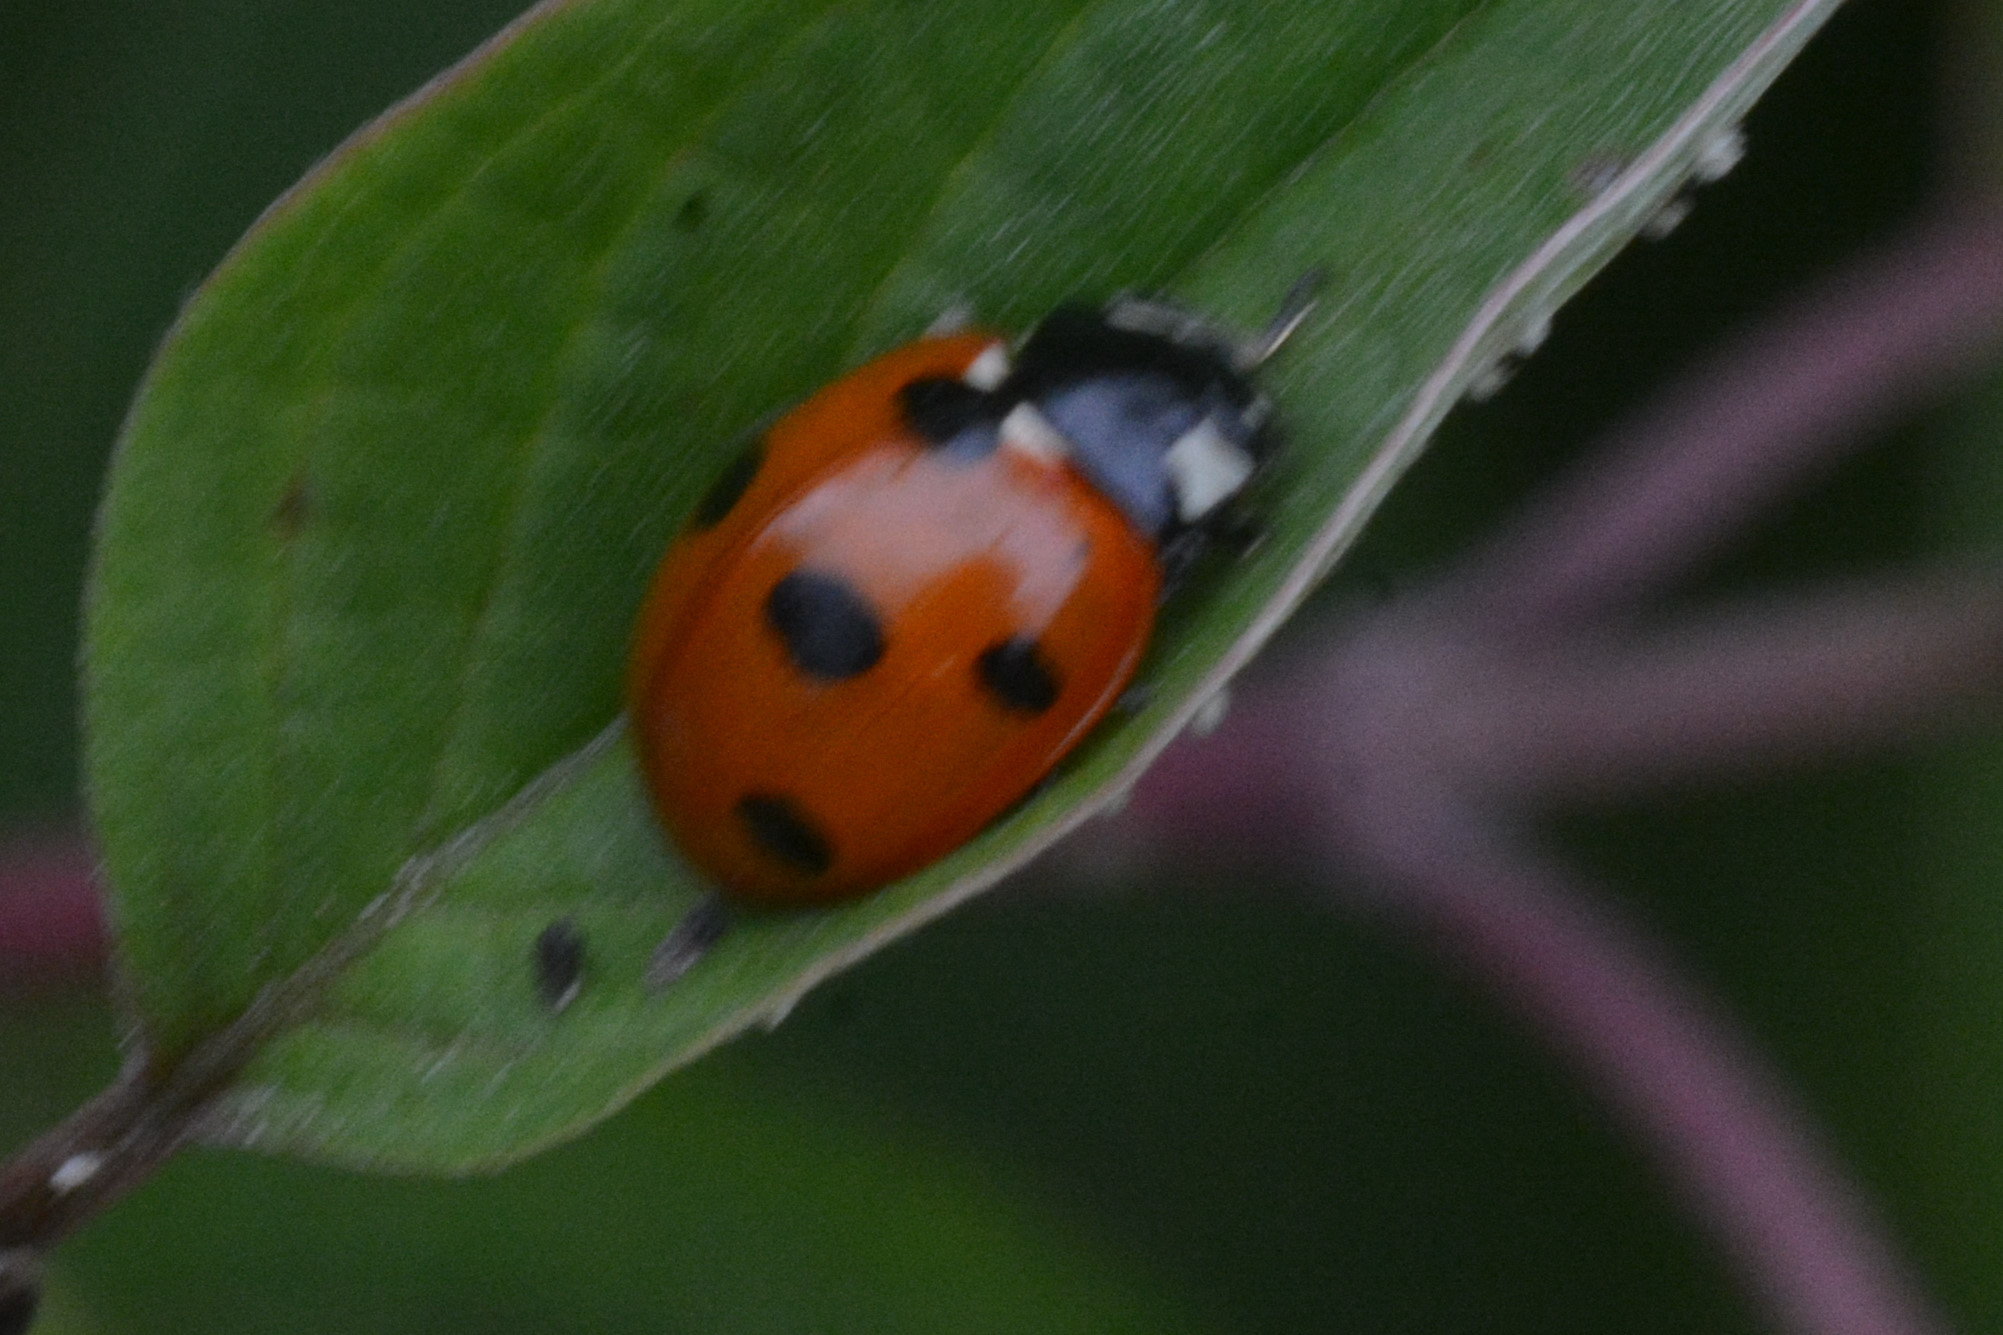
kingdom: Animalia
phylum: Arthropoda
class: Insecta
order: Coleoptera
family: Coccinellidae
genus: Coccinella
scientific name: Coccinella septempunctata
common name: Sevenspotted lady beetle
